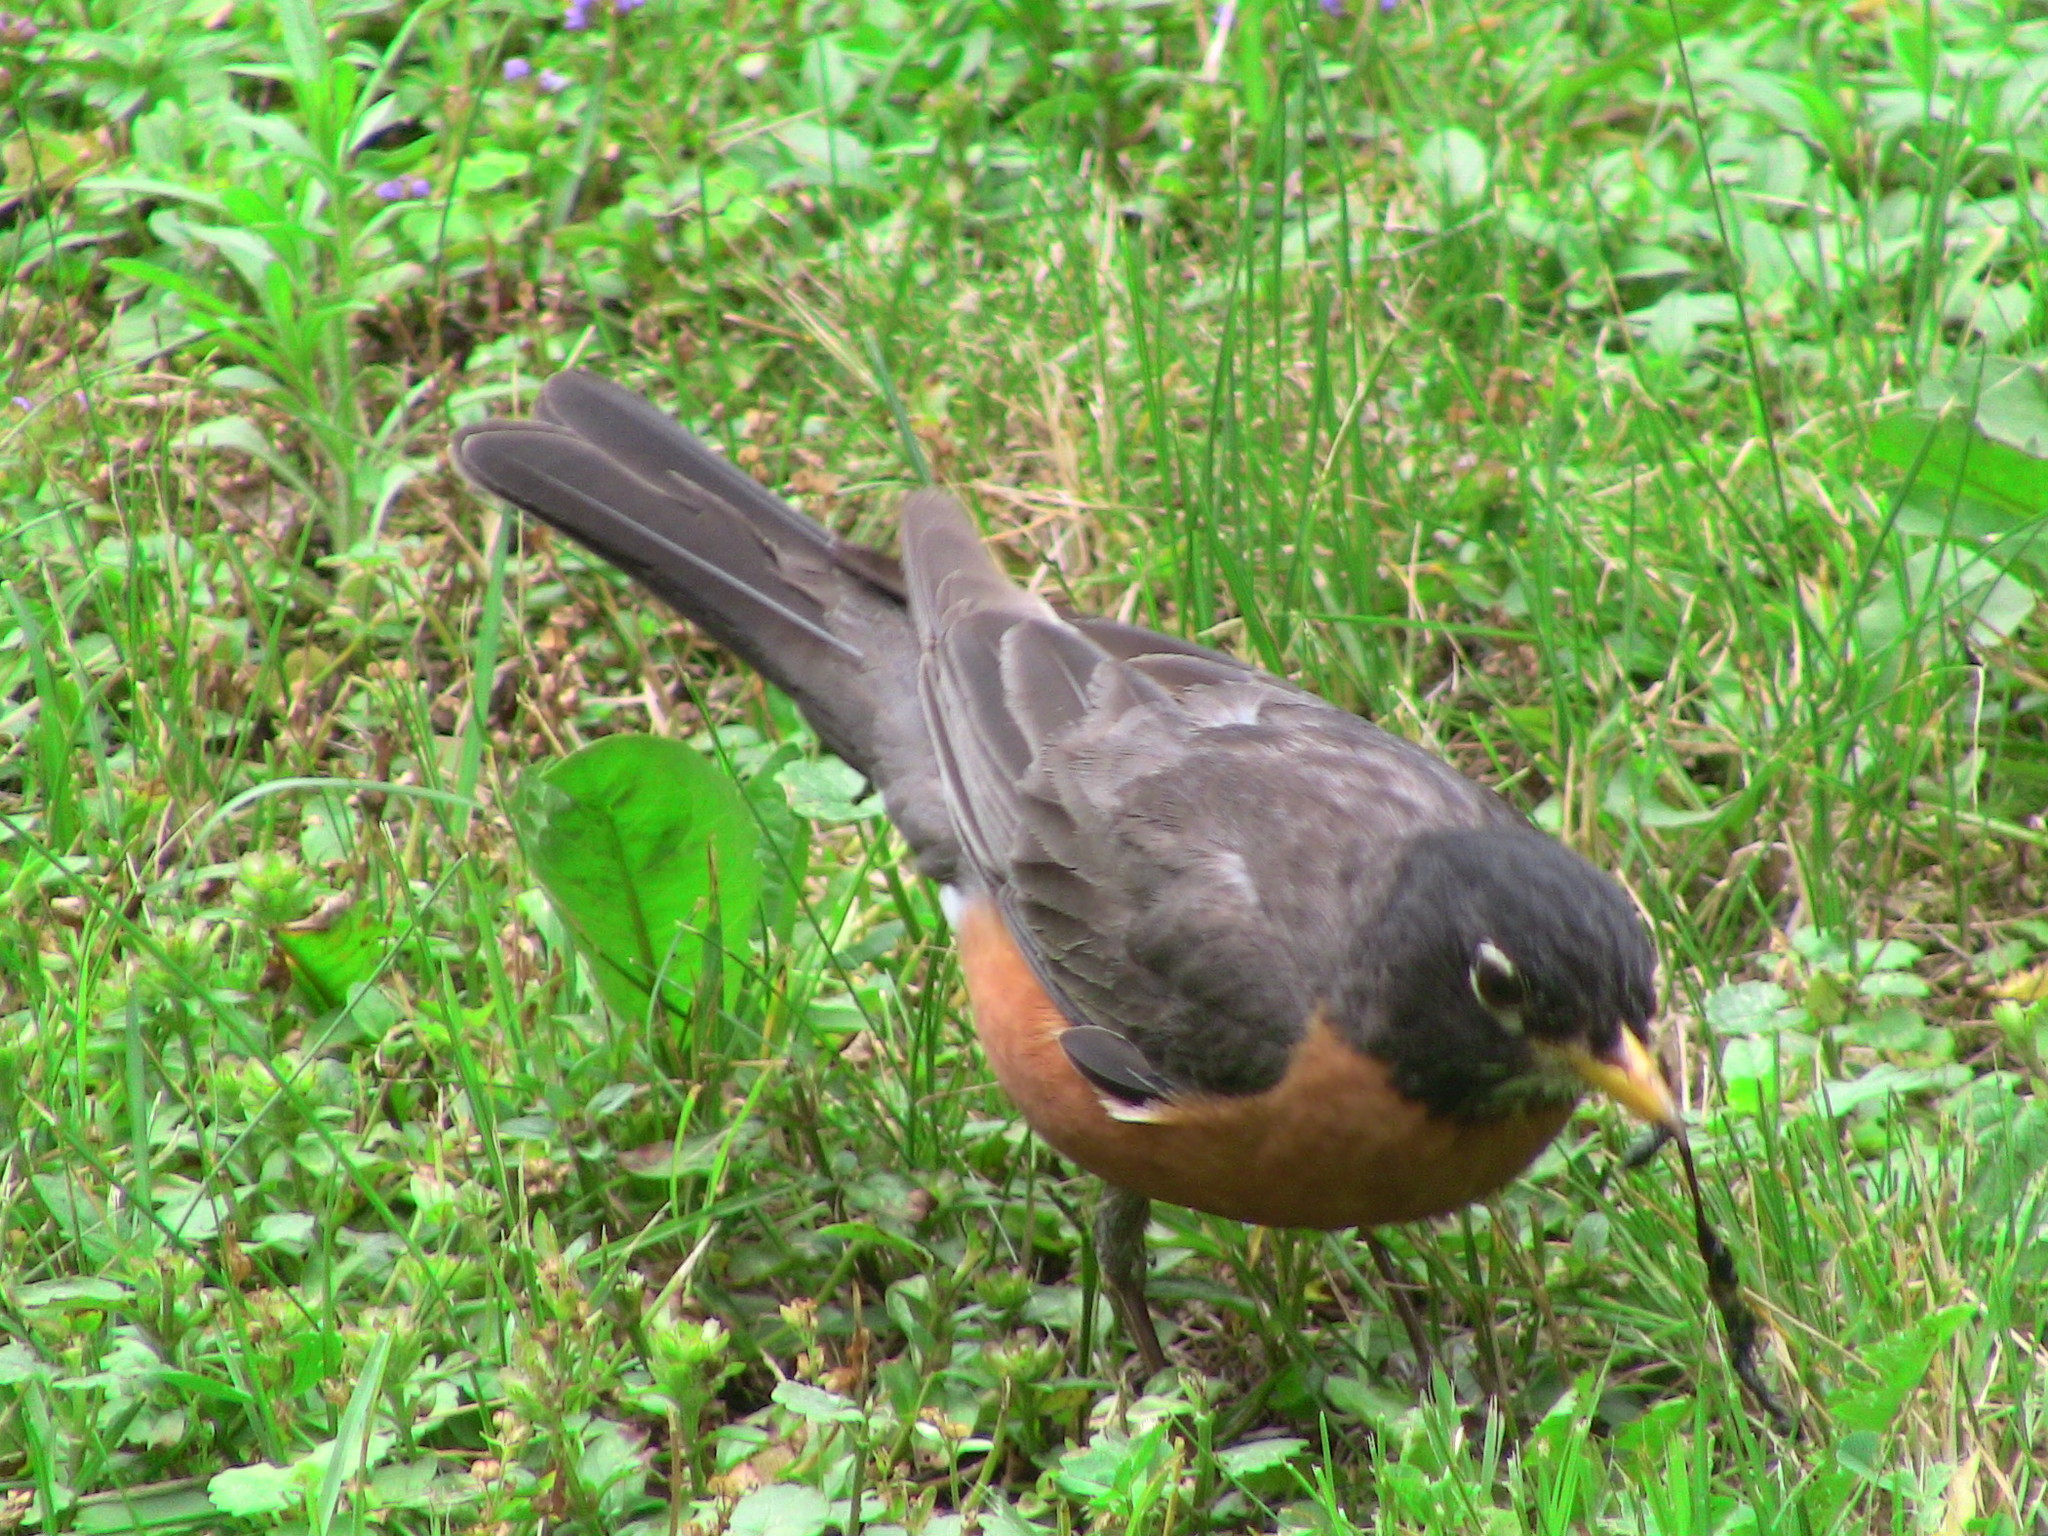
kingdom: Animalia
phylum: Chordata
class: Aves
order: Passeriformes
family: Turdidae
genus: Turdus
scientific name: Turdus migratorius
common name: American robin
